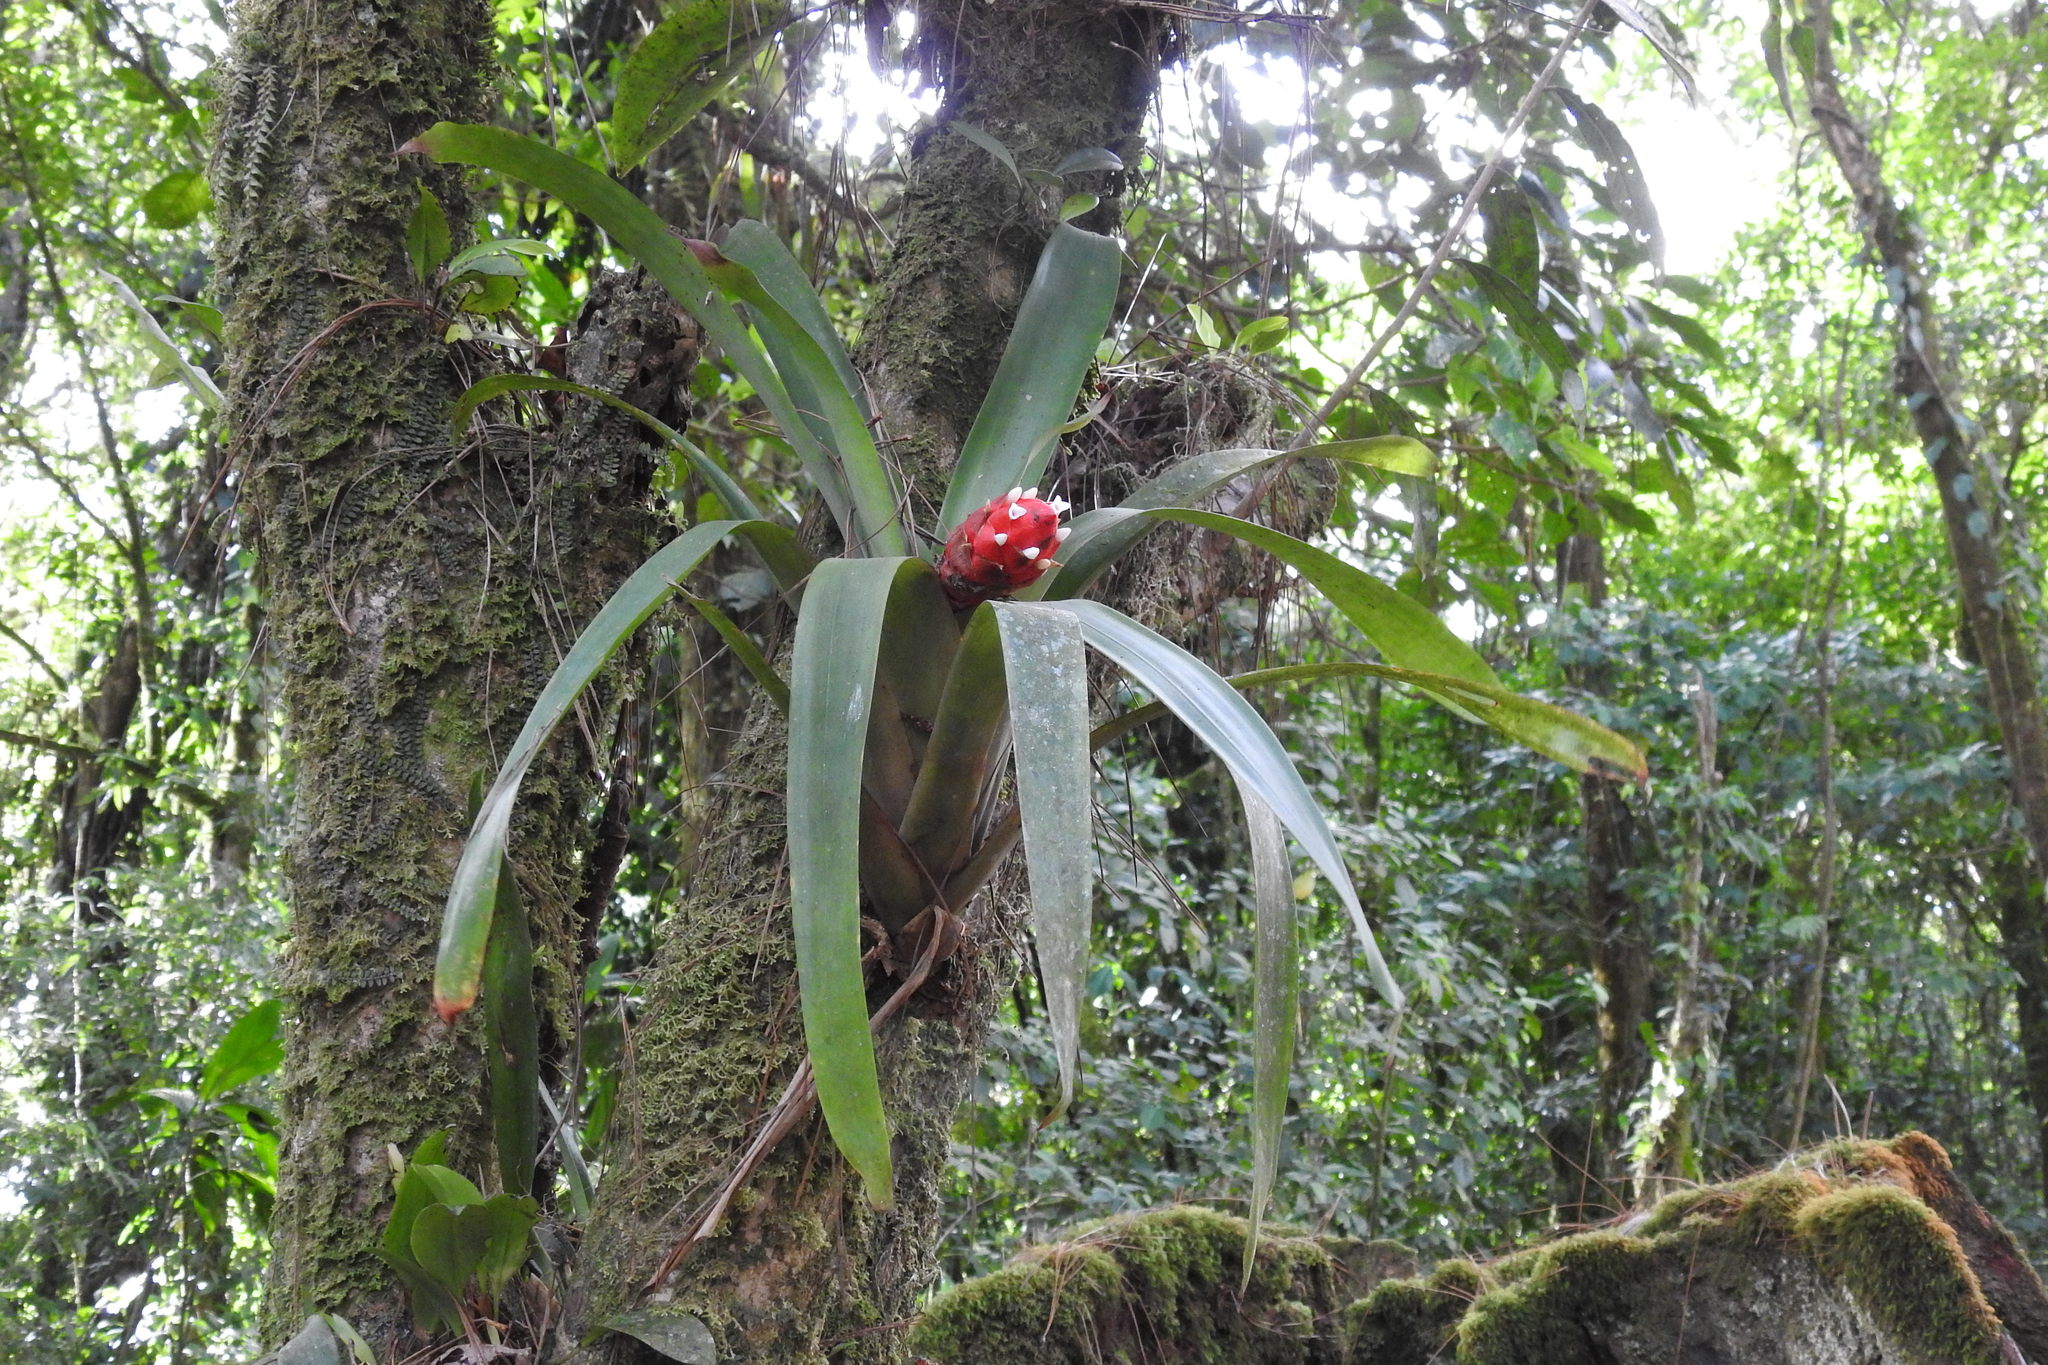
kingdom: Plantae
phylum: Tracheophyta
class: Liliopsida
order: Poales
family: Bromeliaceae
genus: Guzmania
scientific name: Guzmania desautelsii
